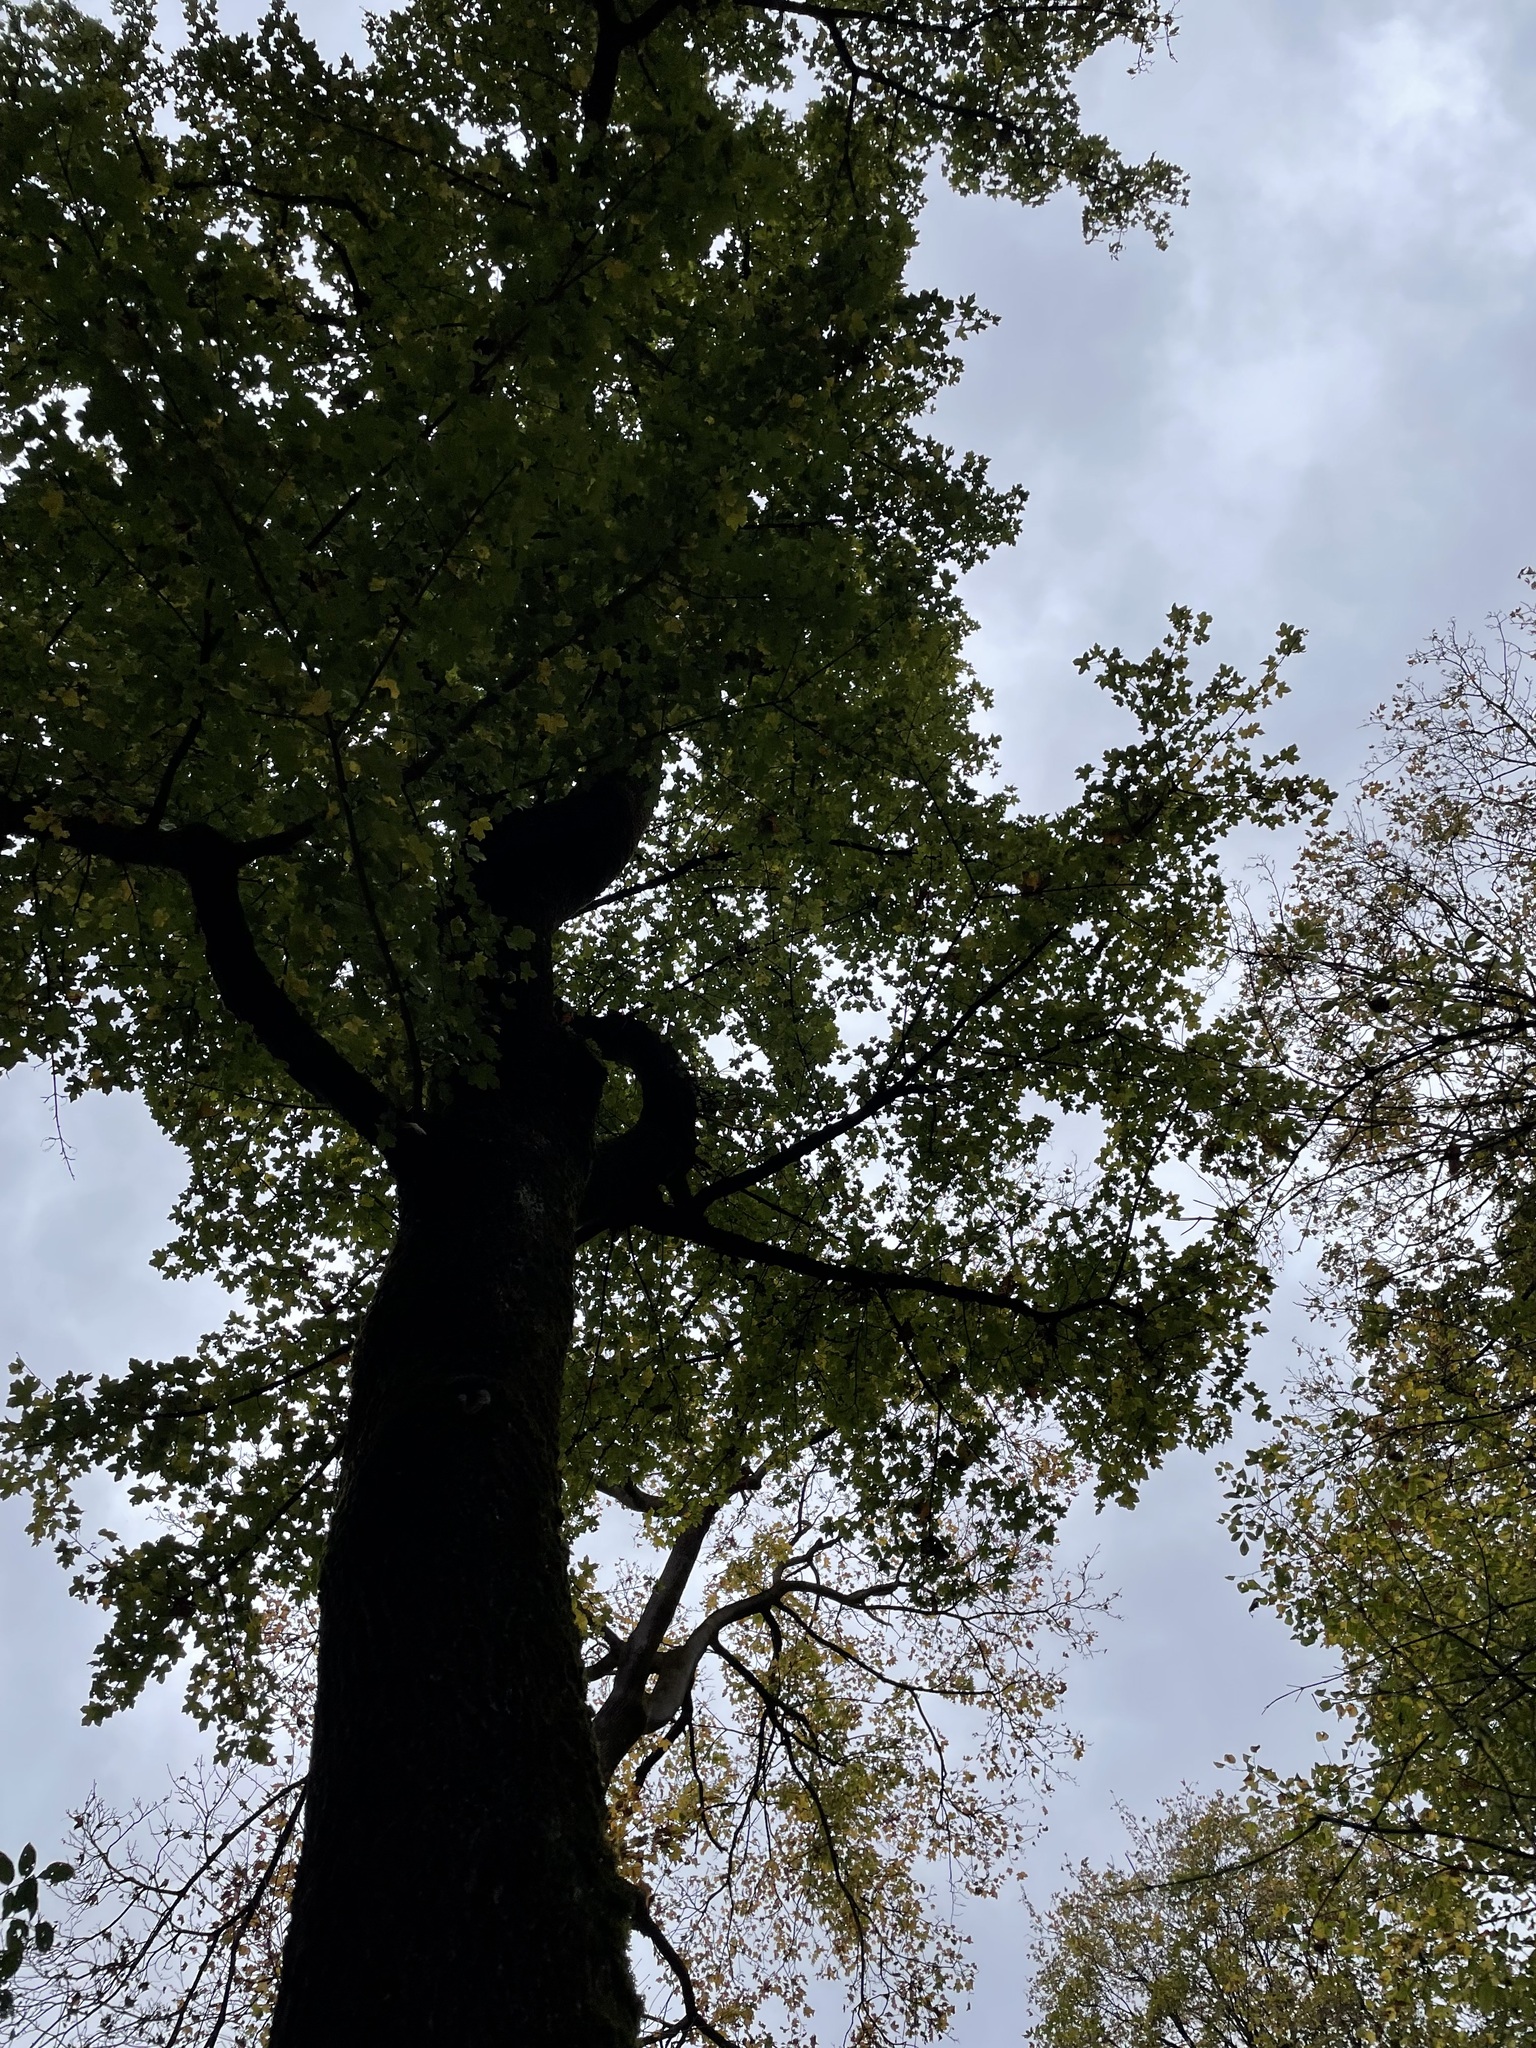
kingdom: Plantae
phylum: Tracheophyta
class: Magnoliopsida
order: Sapindales
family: Sapindaceae
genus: Acer
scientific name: Acer campestre
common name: Field maple
